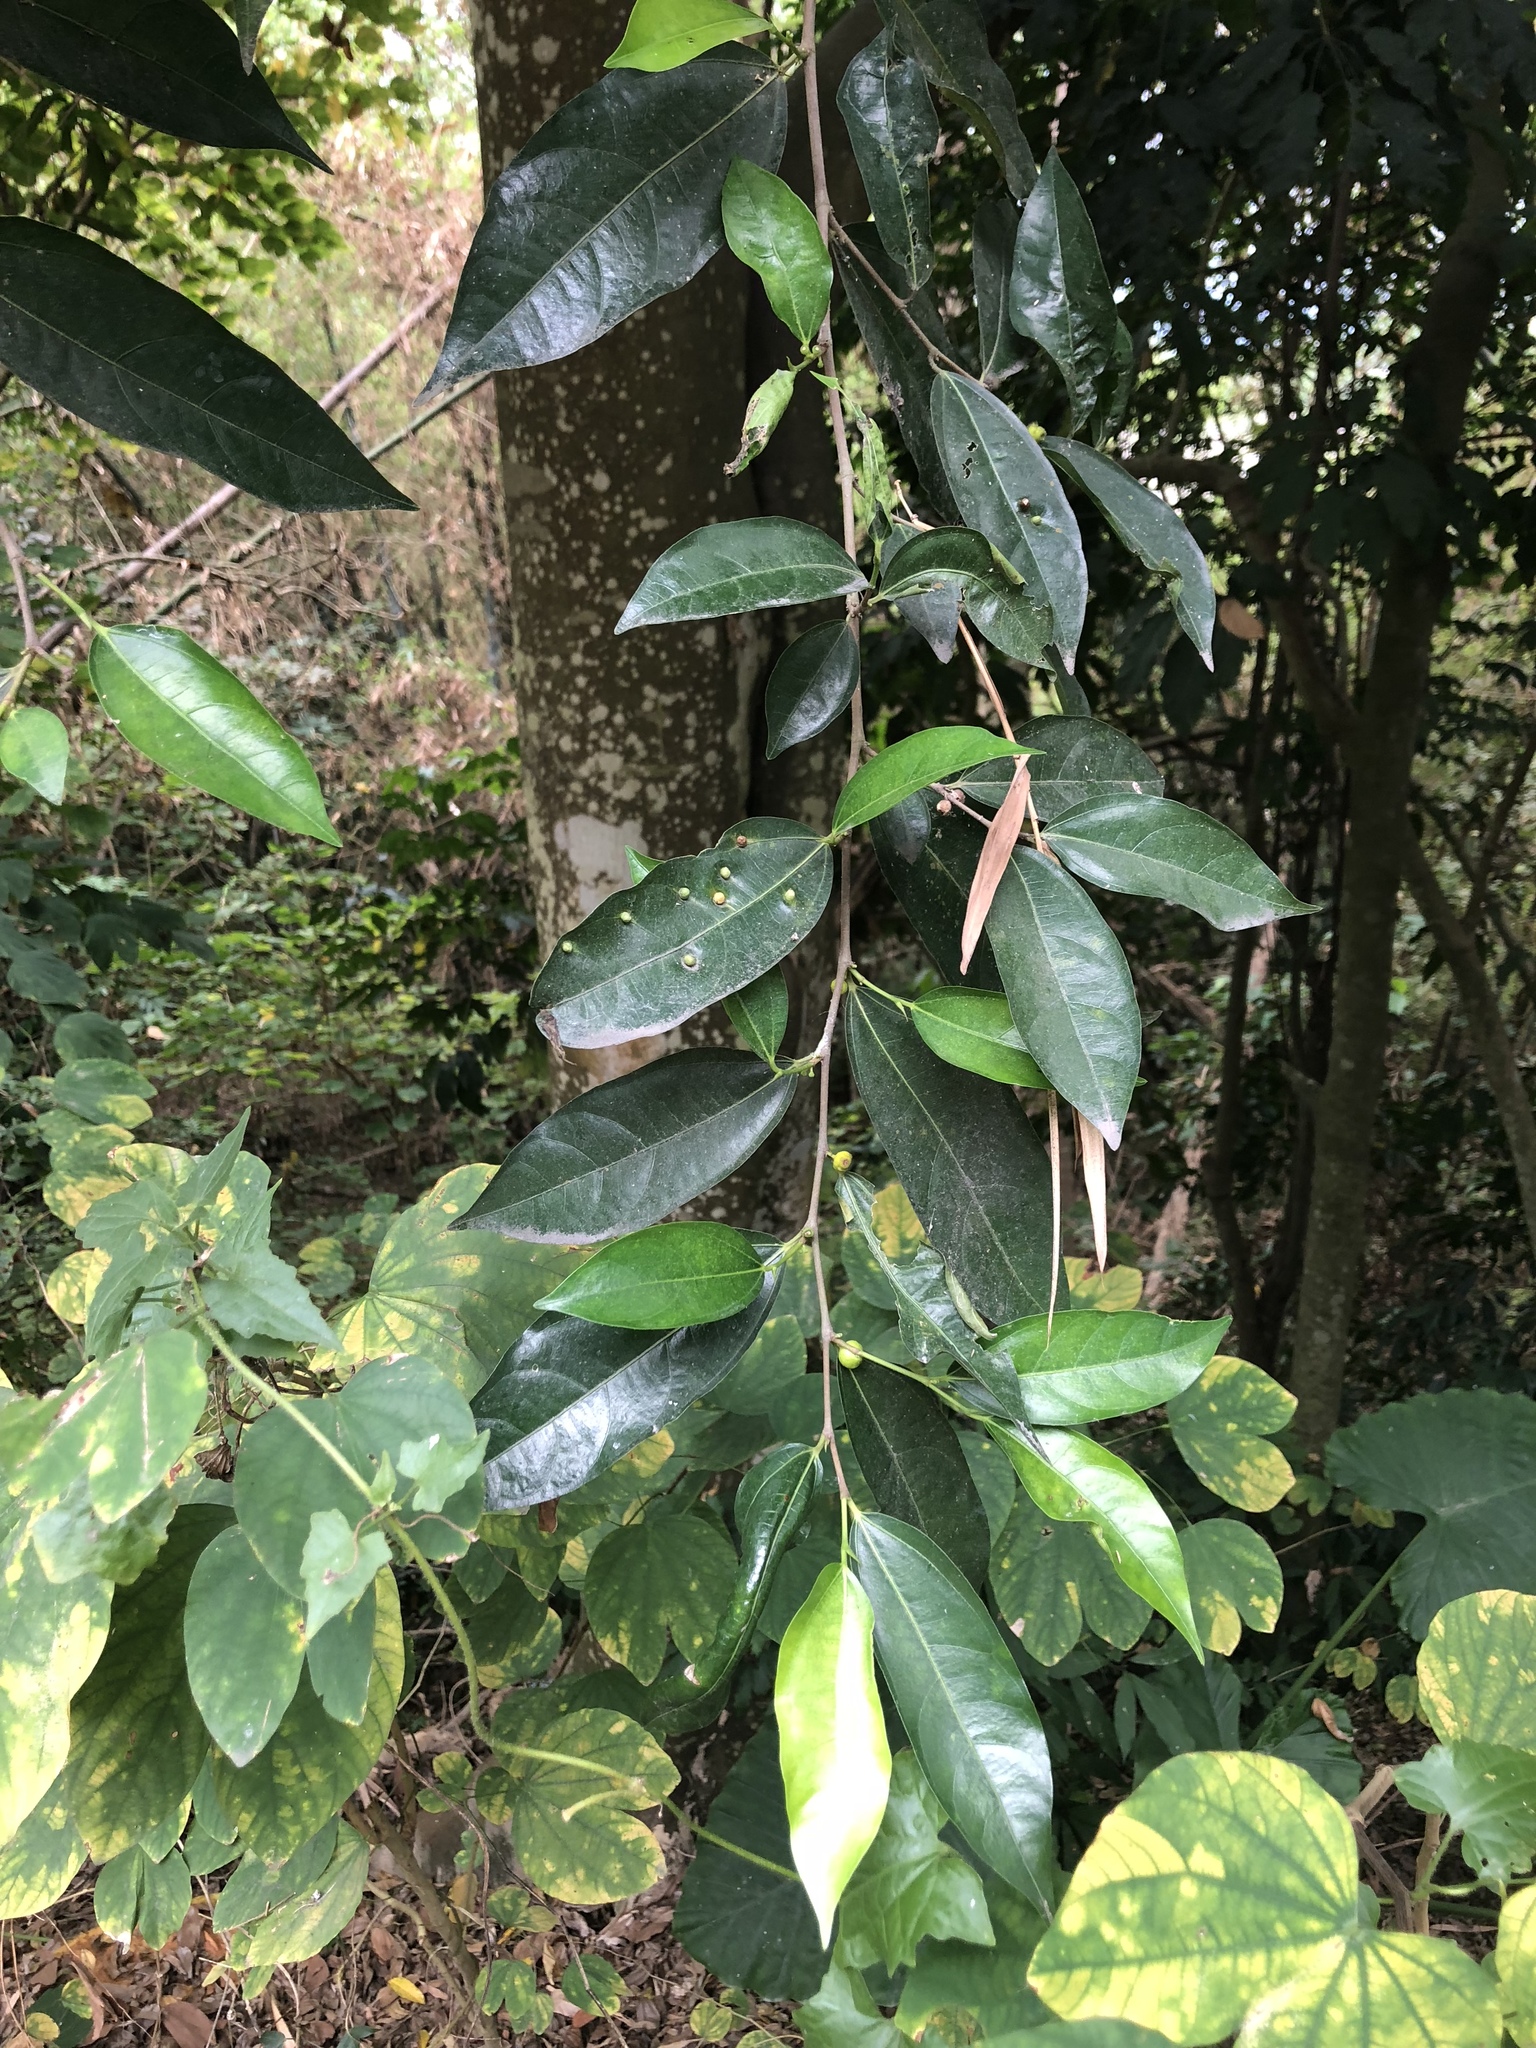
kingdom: Plantae
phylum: Tracheophyta
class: Magnoliopsida
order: Rosales
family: Moraceae
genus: Ficus
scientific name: Ficus ampelos
